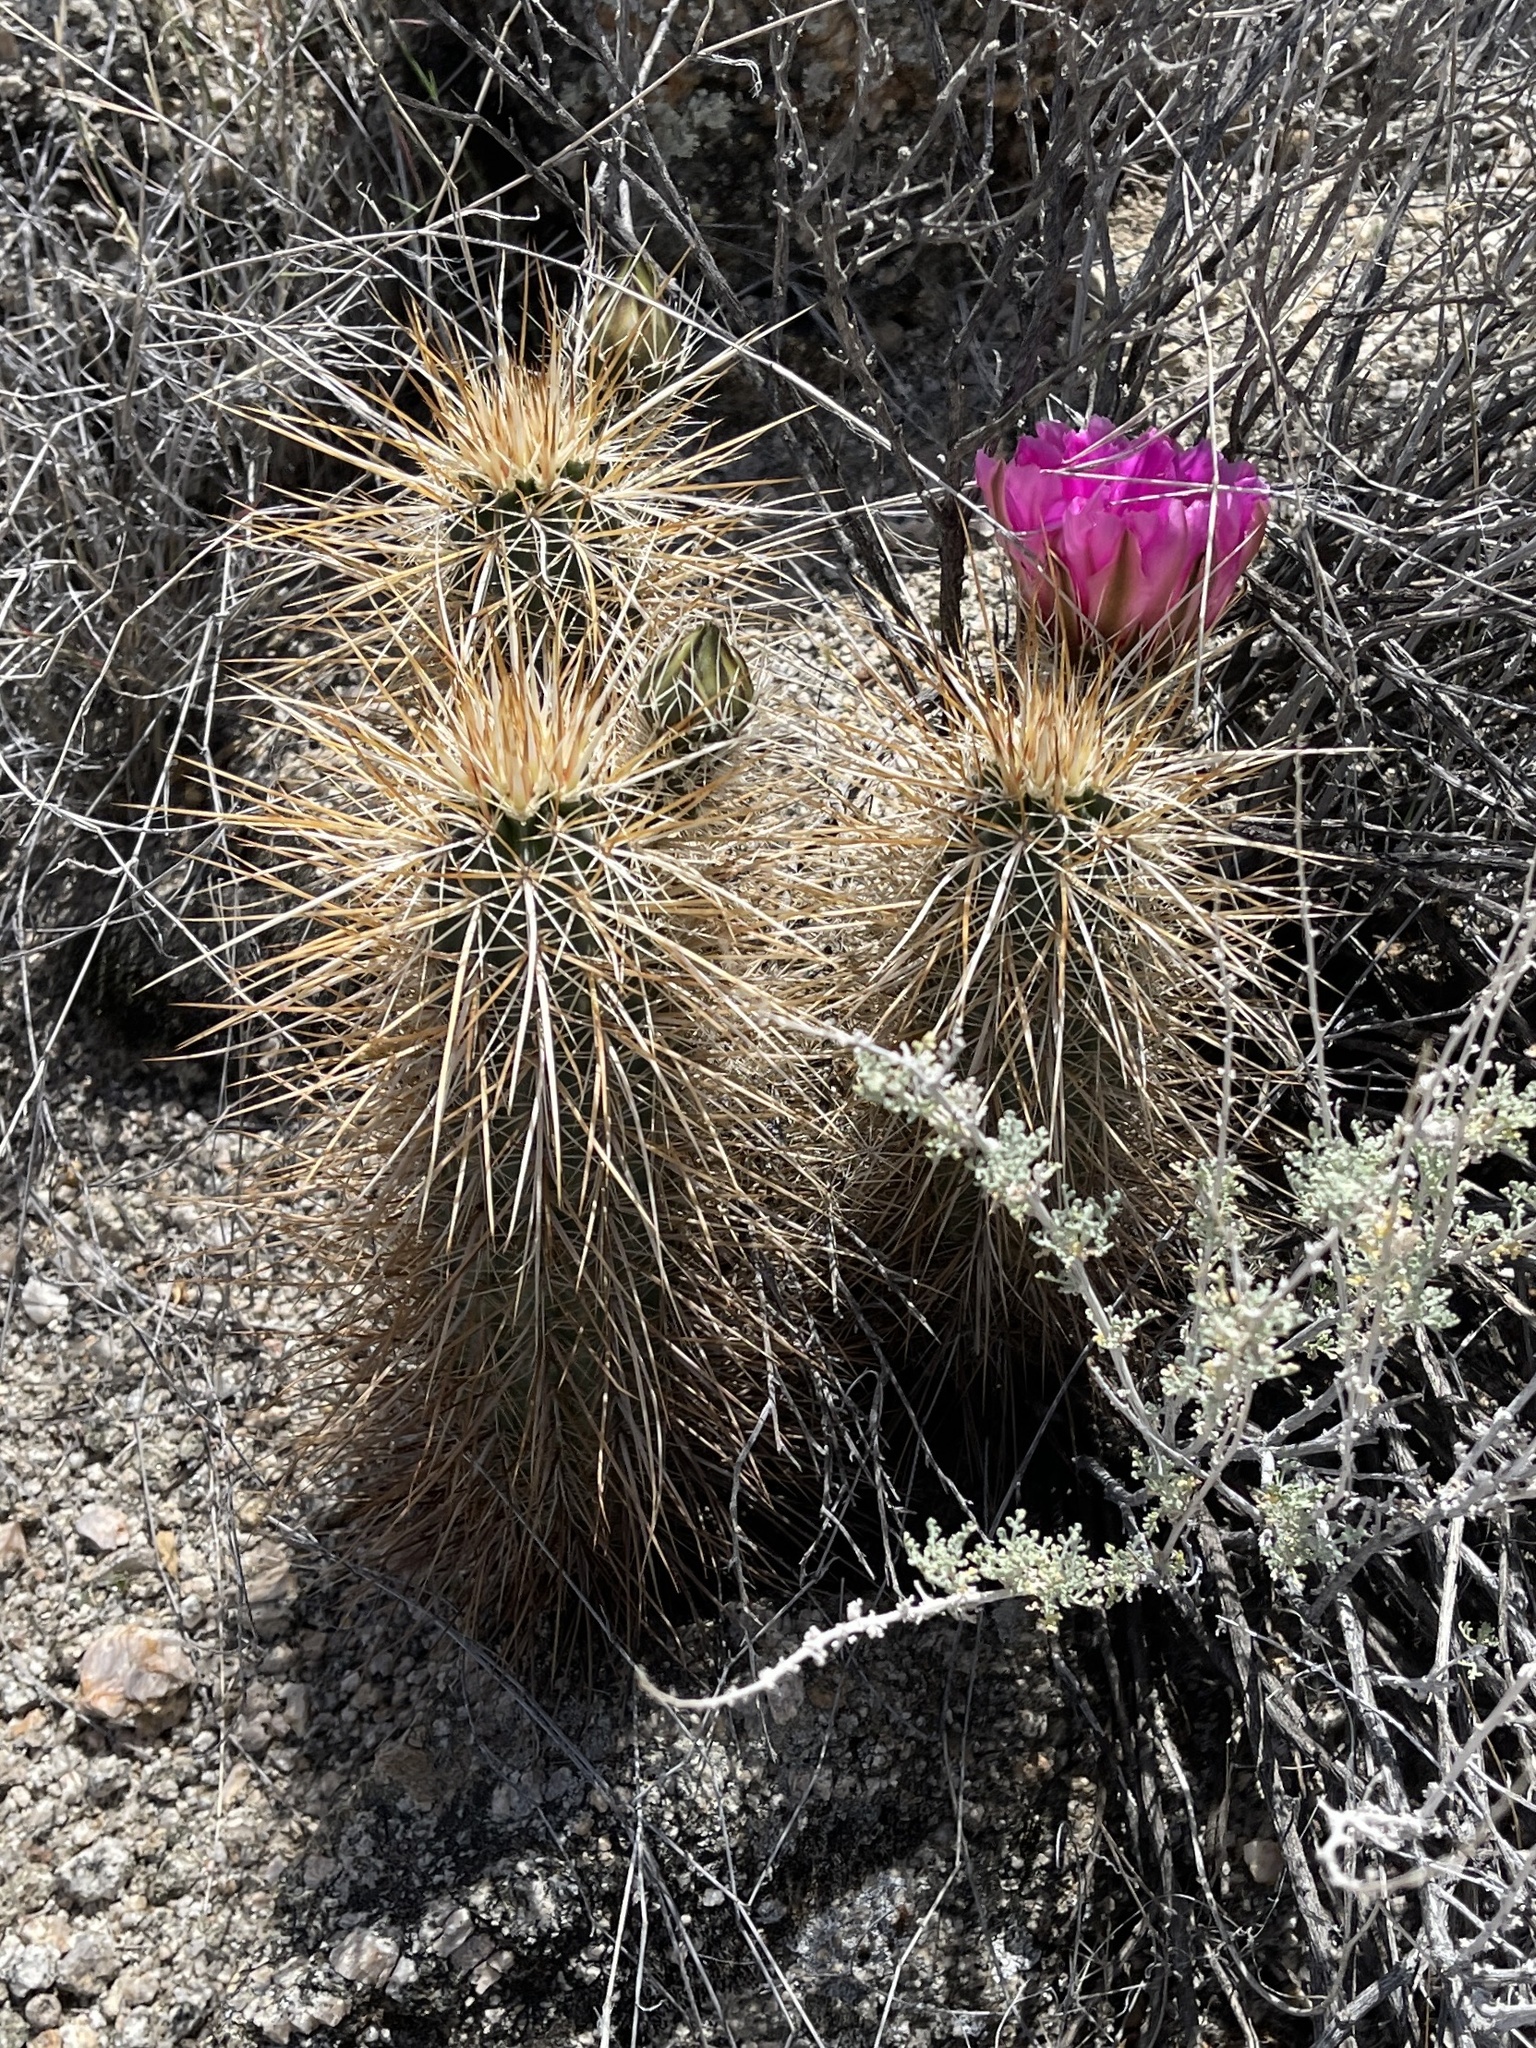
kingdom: Plantae
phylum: Tracheophyta
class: Magnoliopsida
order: Caryophyllales
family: Cactaceae
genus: Echinocereus
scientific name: Echinocereus engelmannii
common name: Engelmann's hedgehog cactus
